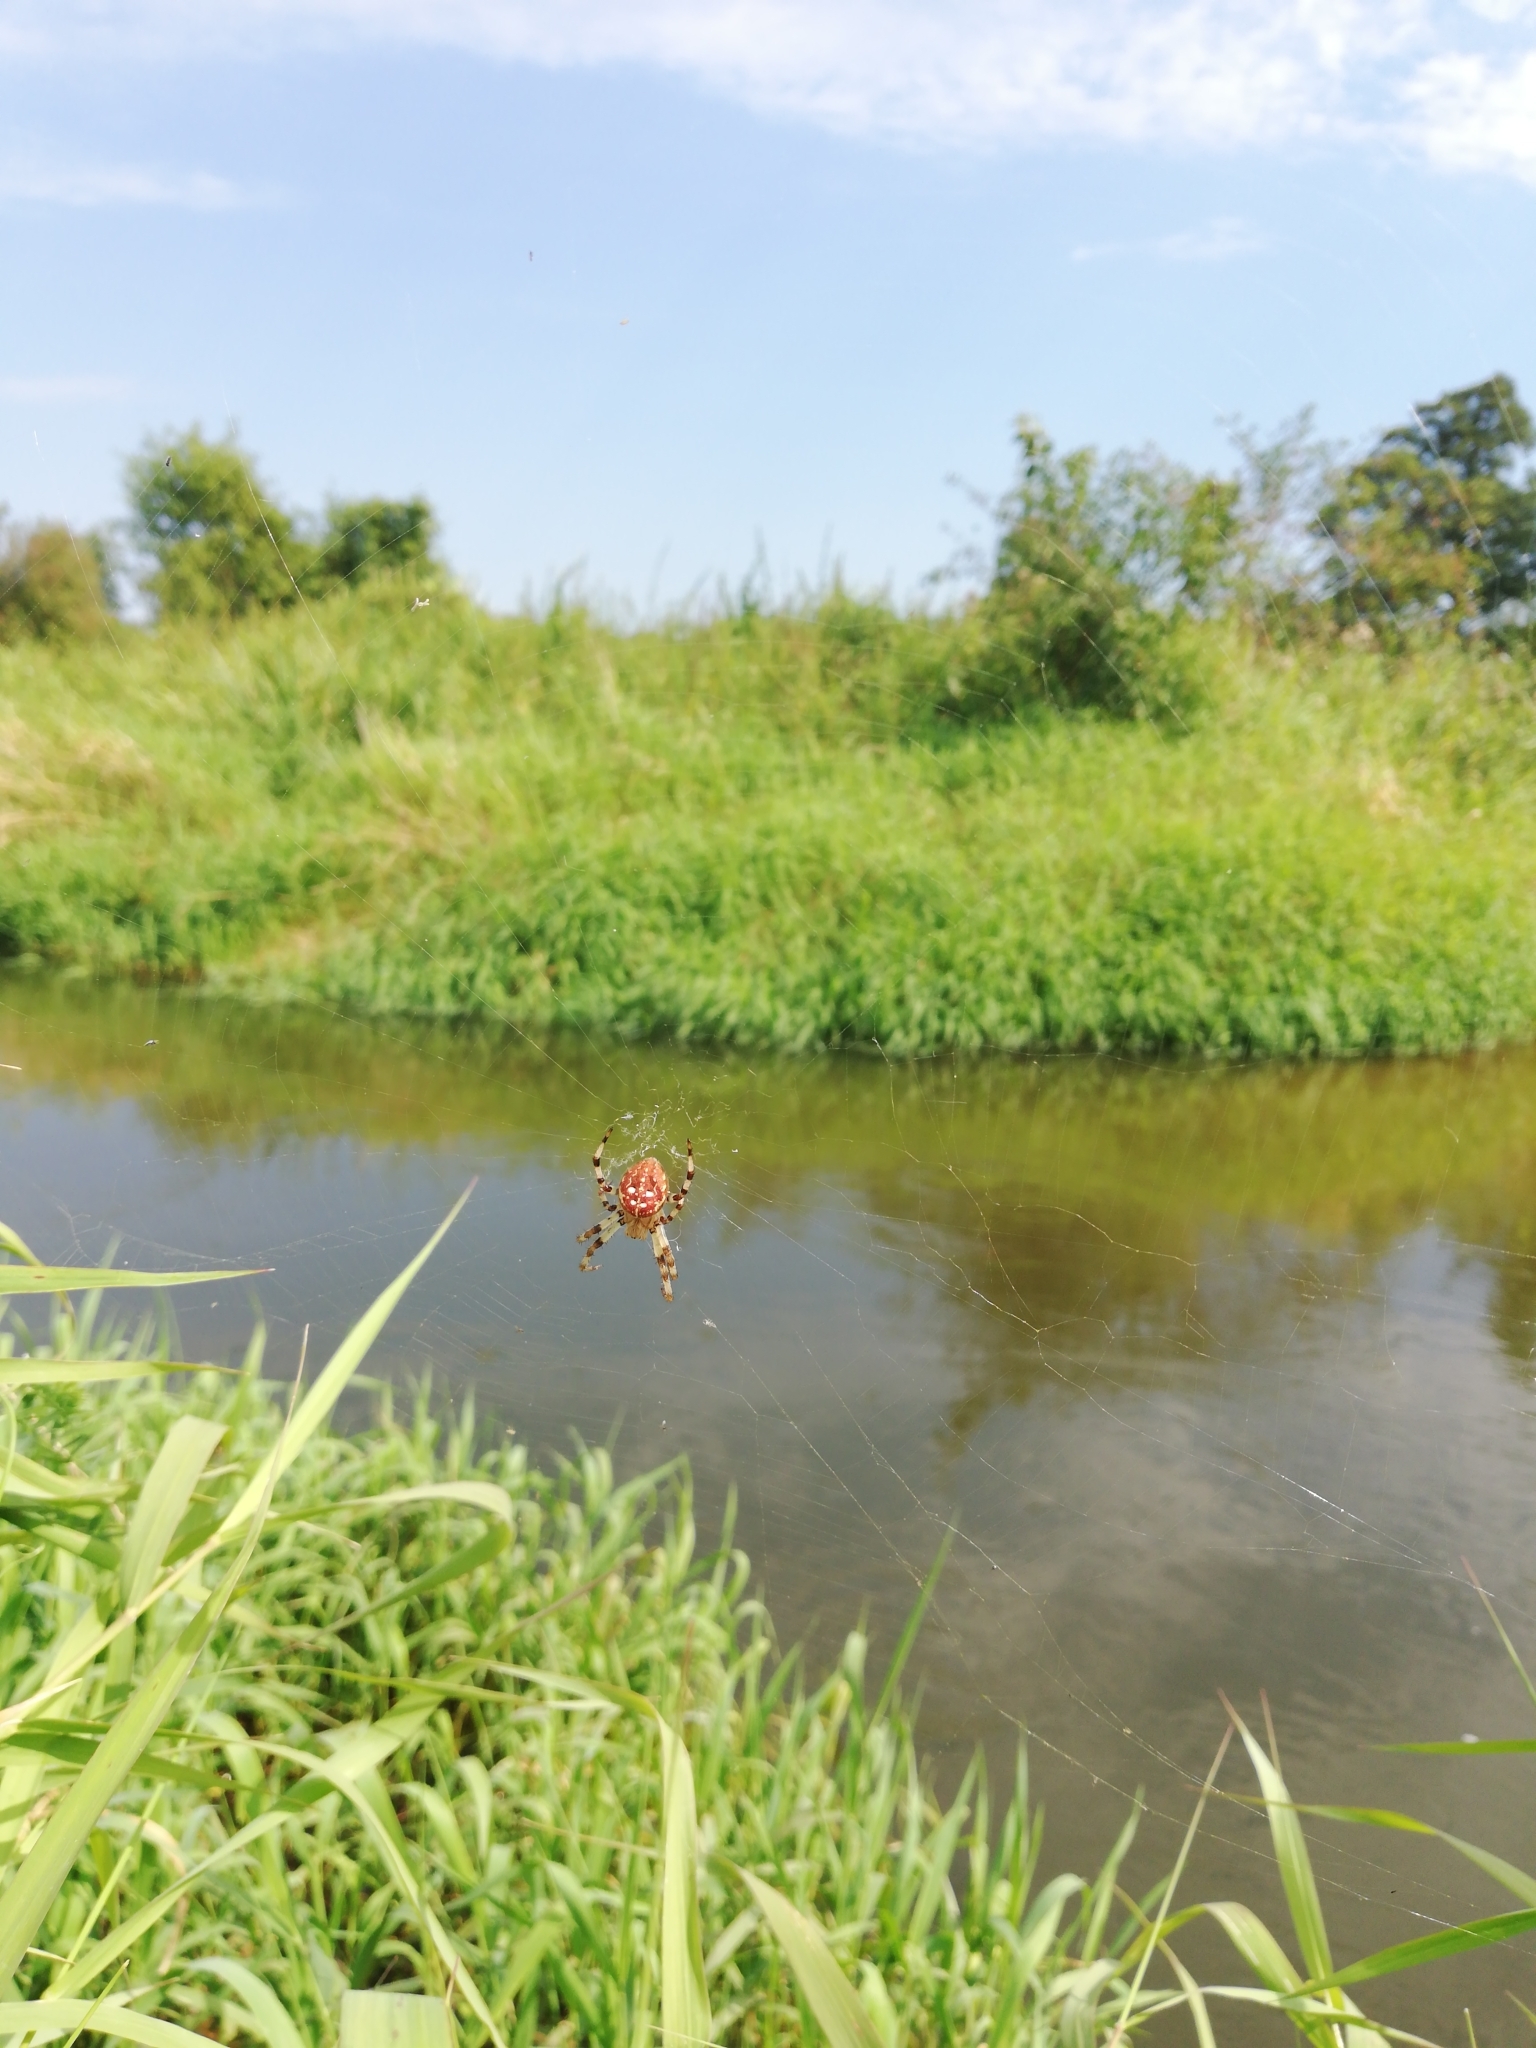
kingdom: Animalia
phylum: Arthropoda
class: Arachnida
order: Araneae
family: Araneidae
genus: Araneus
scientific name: Araneus quadratus
